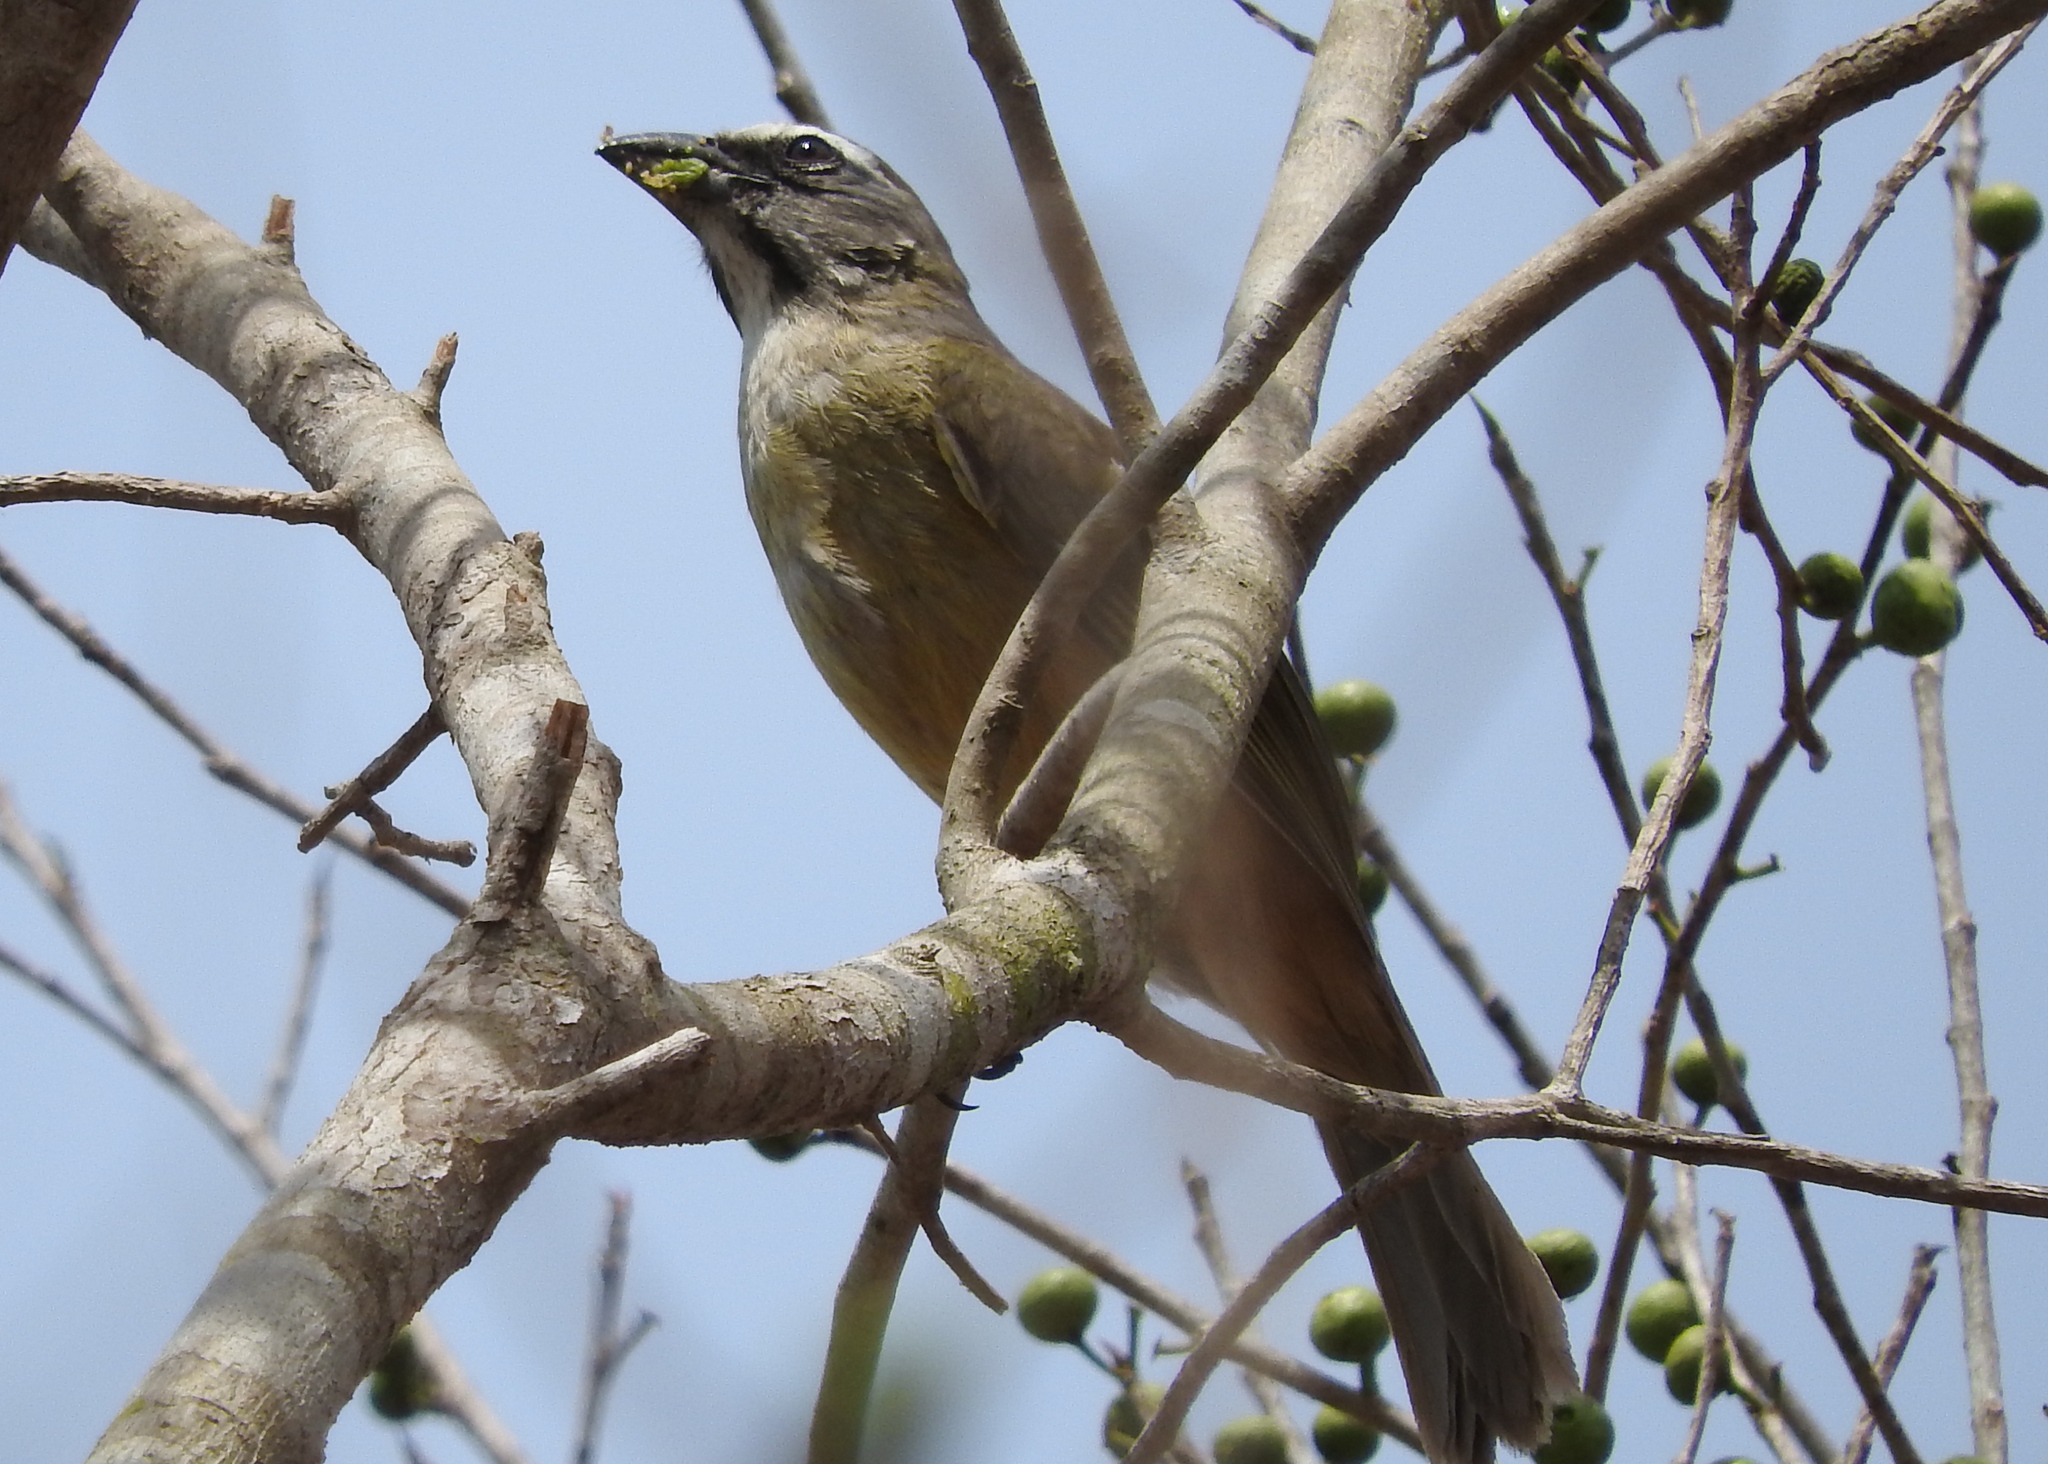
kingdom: Animalia
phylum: Chordata
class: Aves
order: Passeriformes
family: Thraupidae
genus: Saltator
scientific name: Saltator grandis
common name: Cinnamon-bellied saltator
